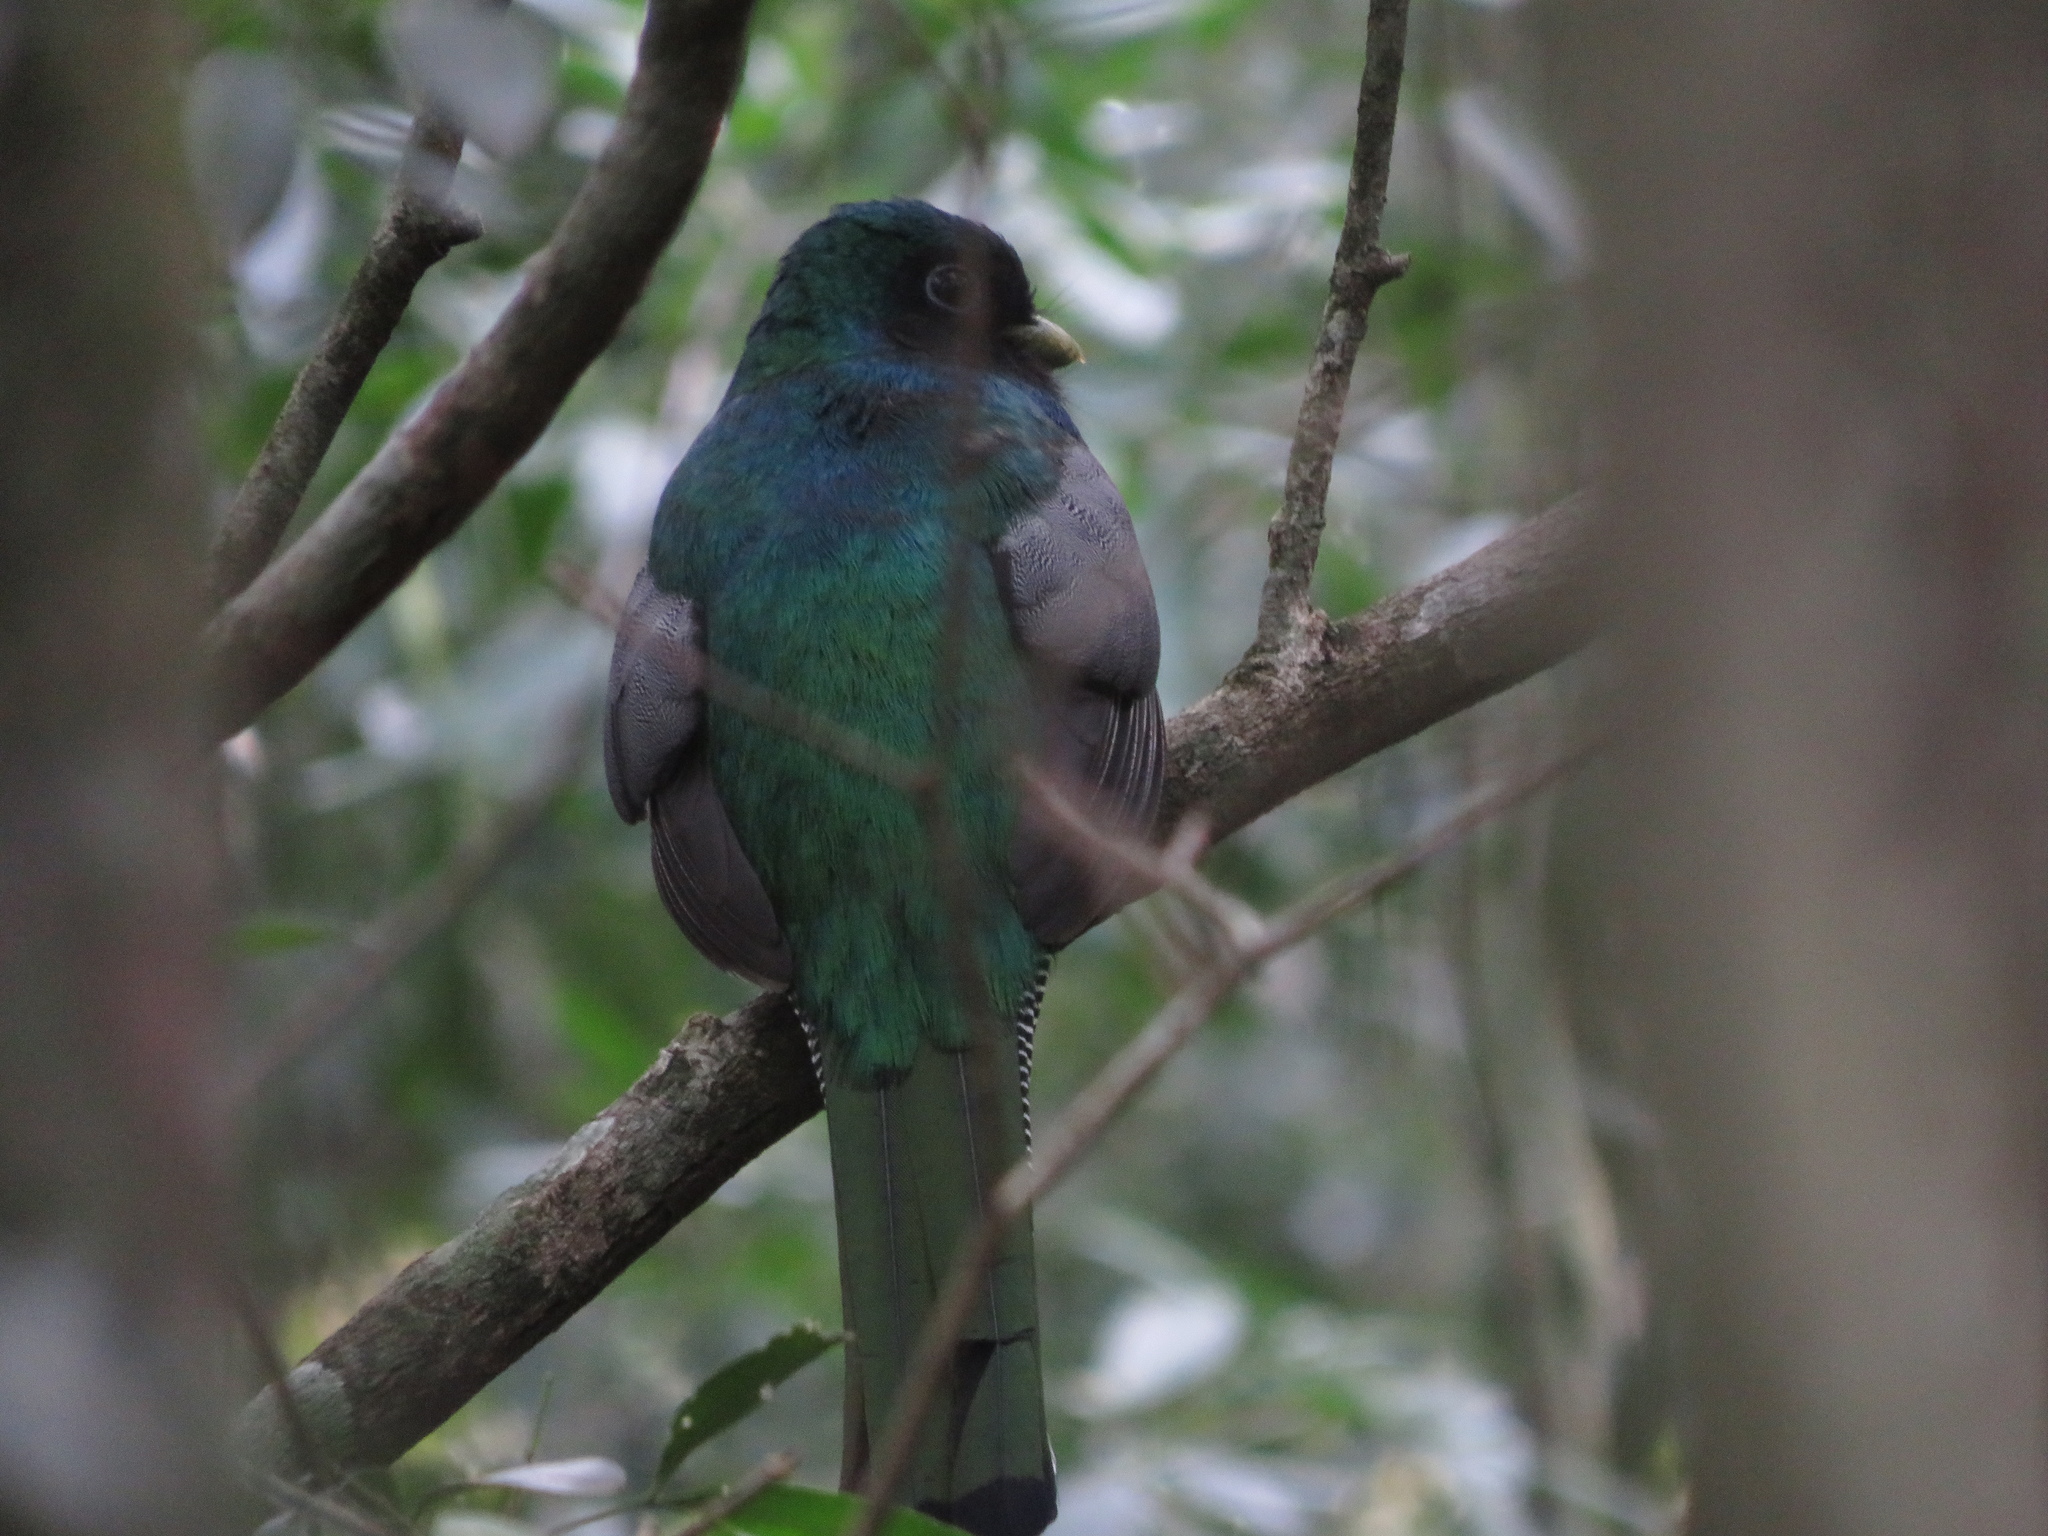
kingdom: Animalia
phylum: Chordata
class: Aves
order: Trogoniformes
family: Trogonidae
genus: Trogon
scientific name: Trogon rufus
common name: Black-throated trogon
